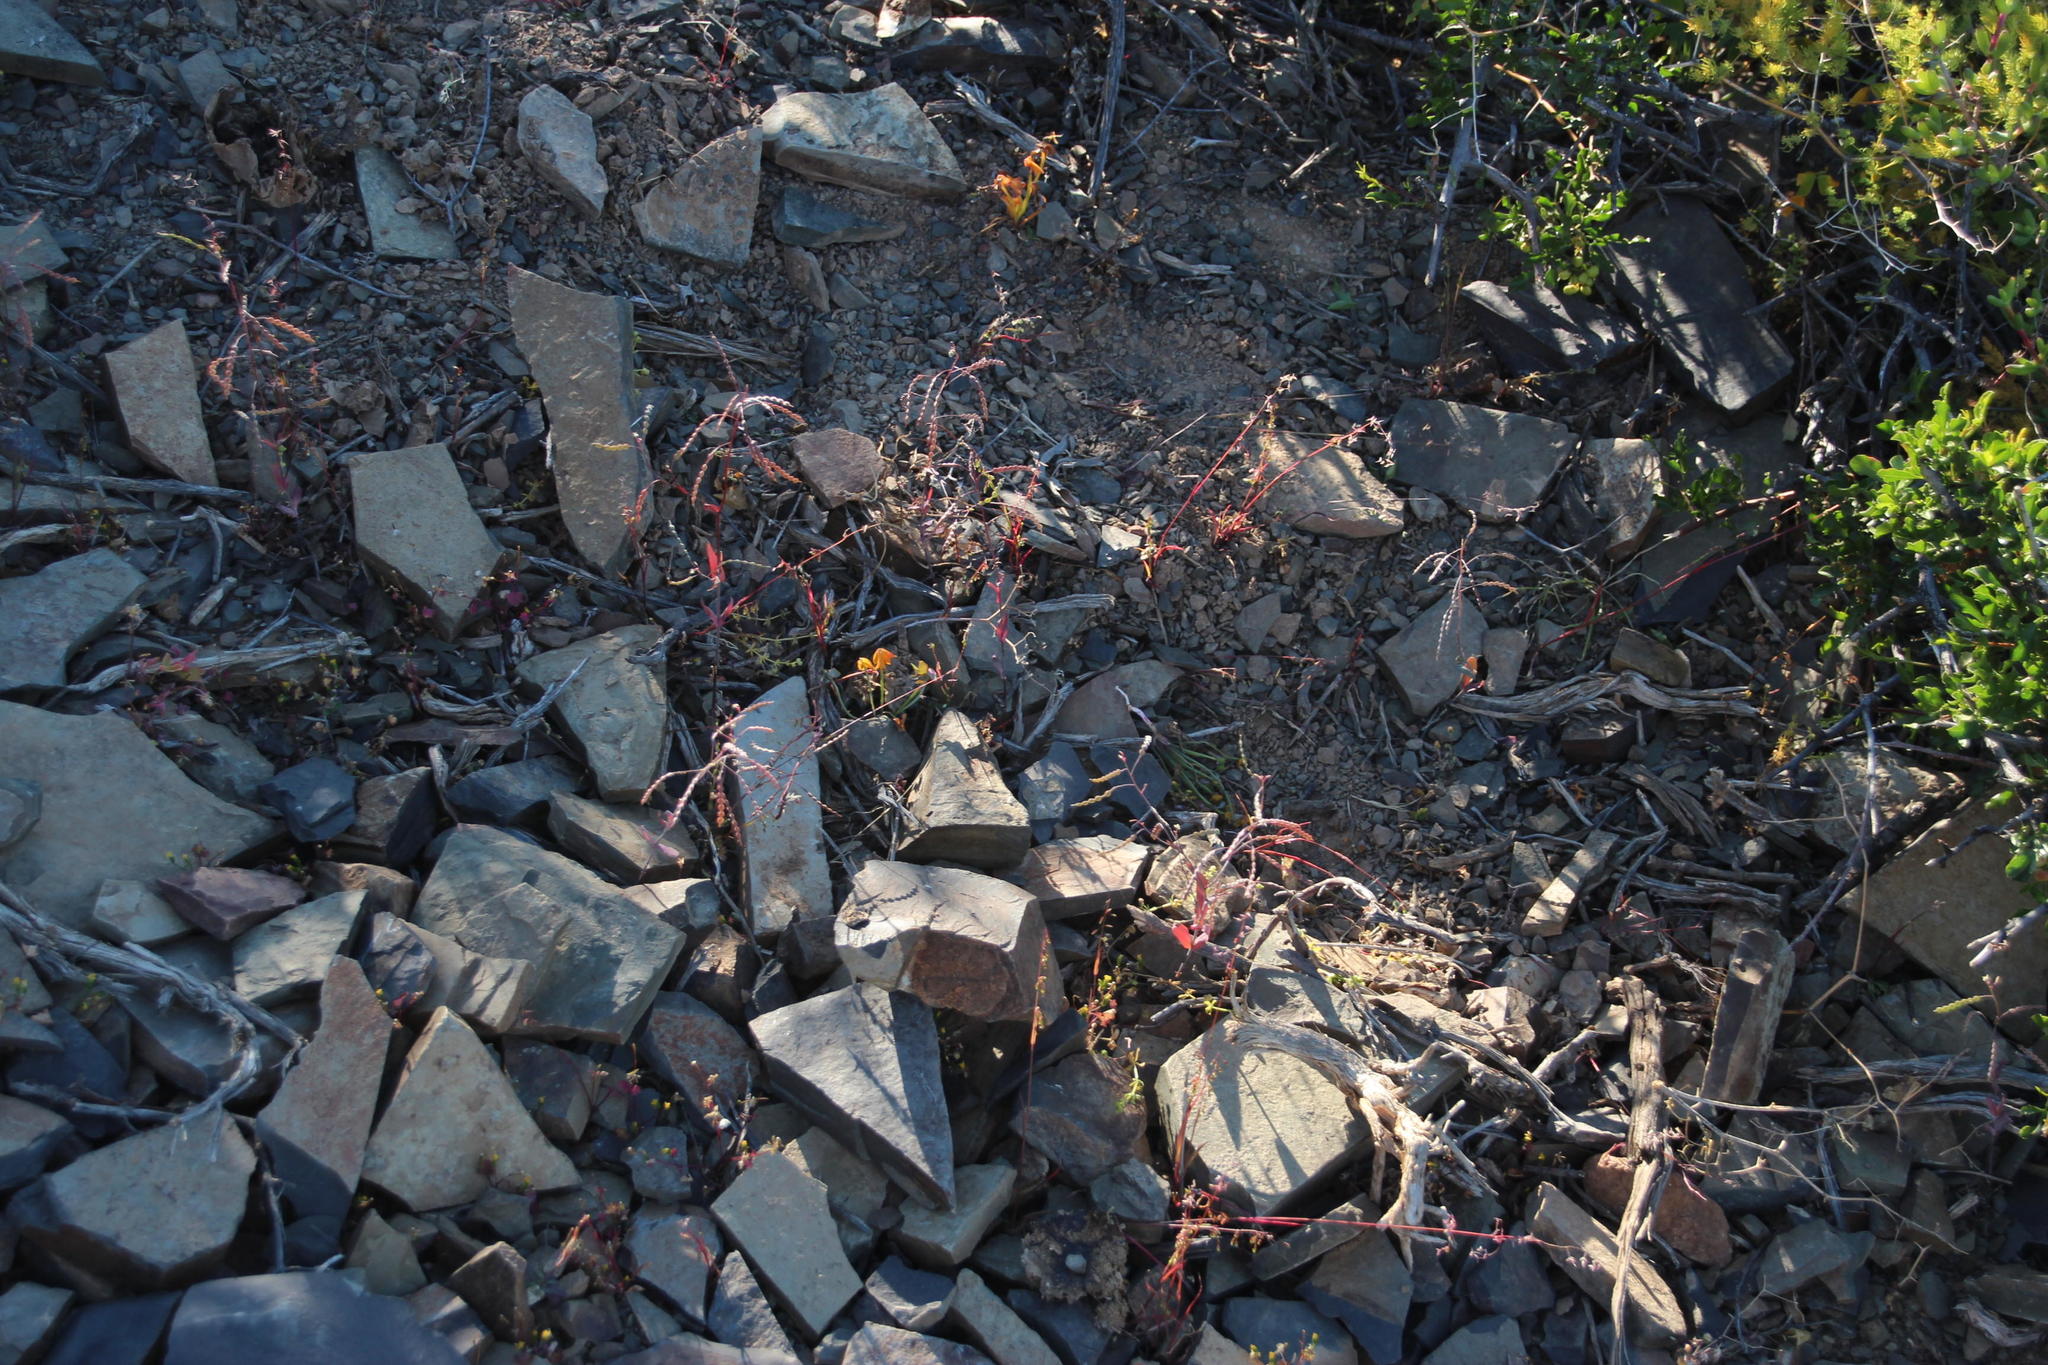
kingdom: Plantae
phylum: Tracheophyta
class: Magnoliopsida
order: Brassicales
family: Brassicaceae
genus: Heliophila
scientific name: Heliophila amplexicaulis
